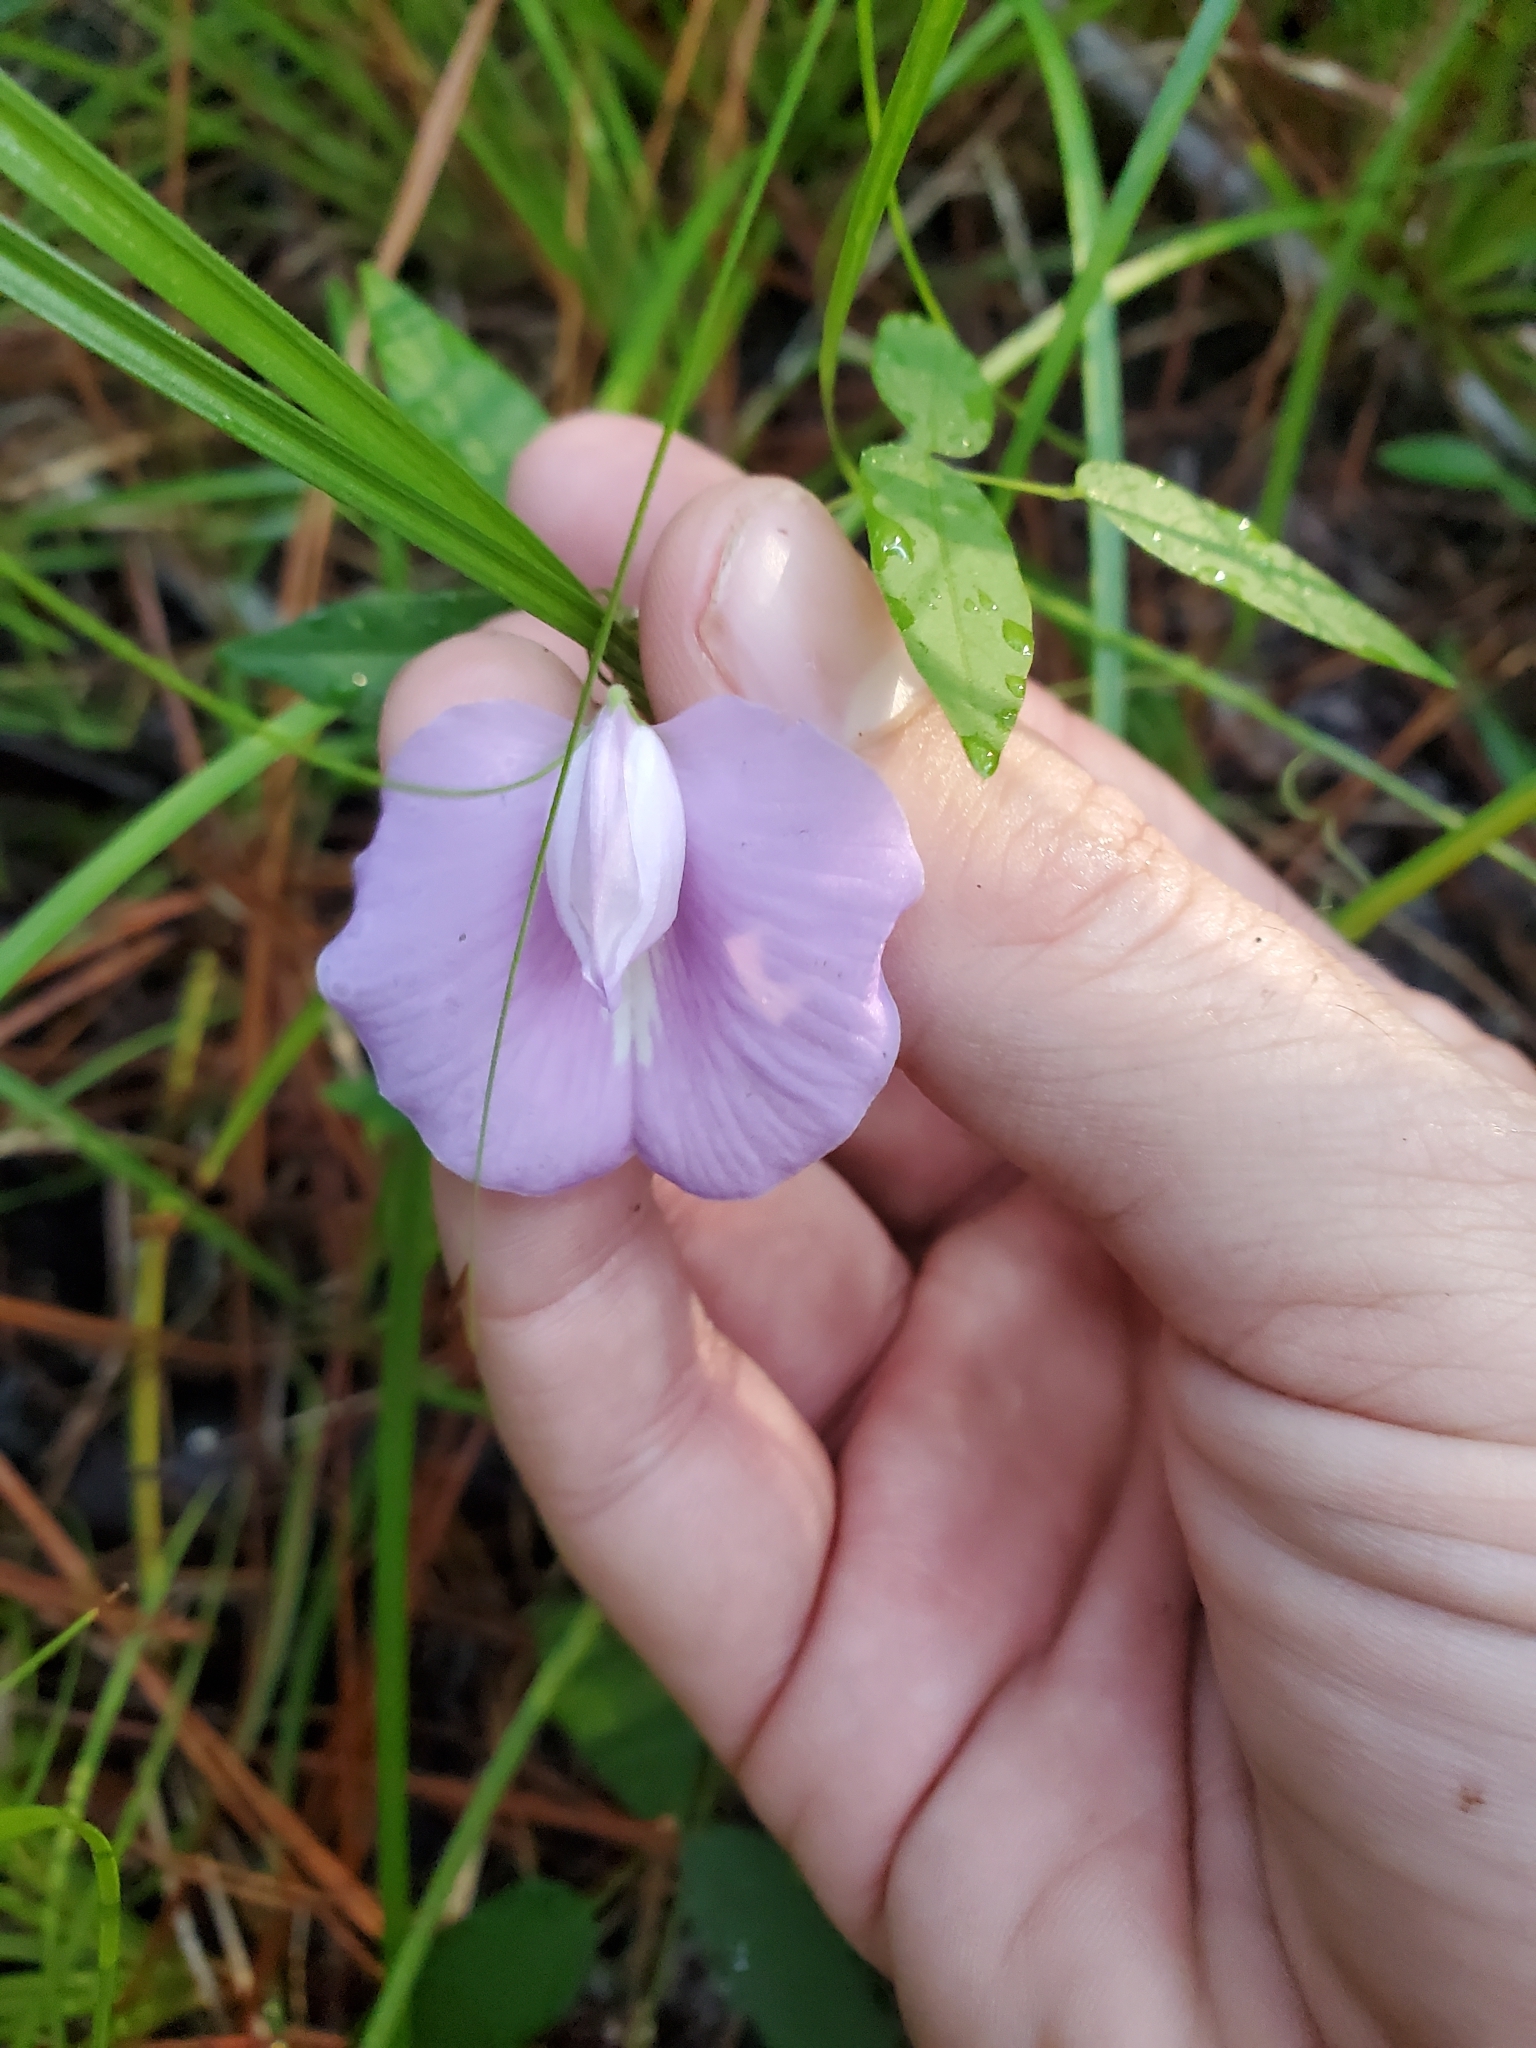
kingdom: Plantae
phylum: Tracheophyta
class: Magnoliopsida
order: Fabales
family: Fabaceae
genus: Centrosema
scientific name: Centrosema virginianum
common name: Butterfly-pea
